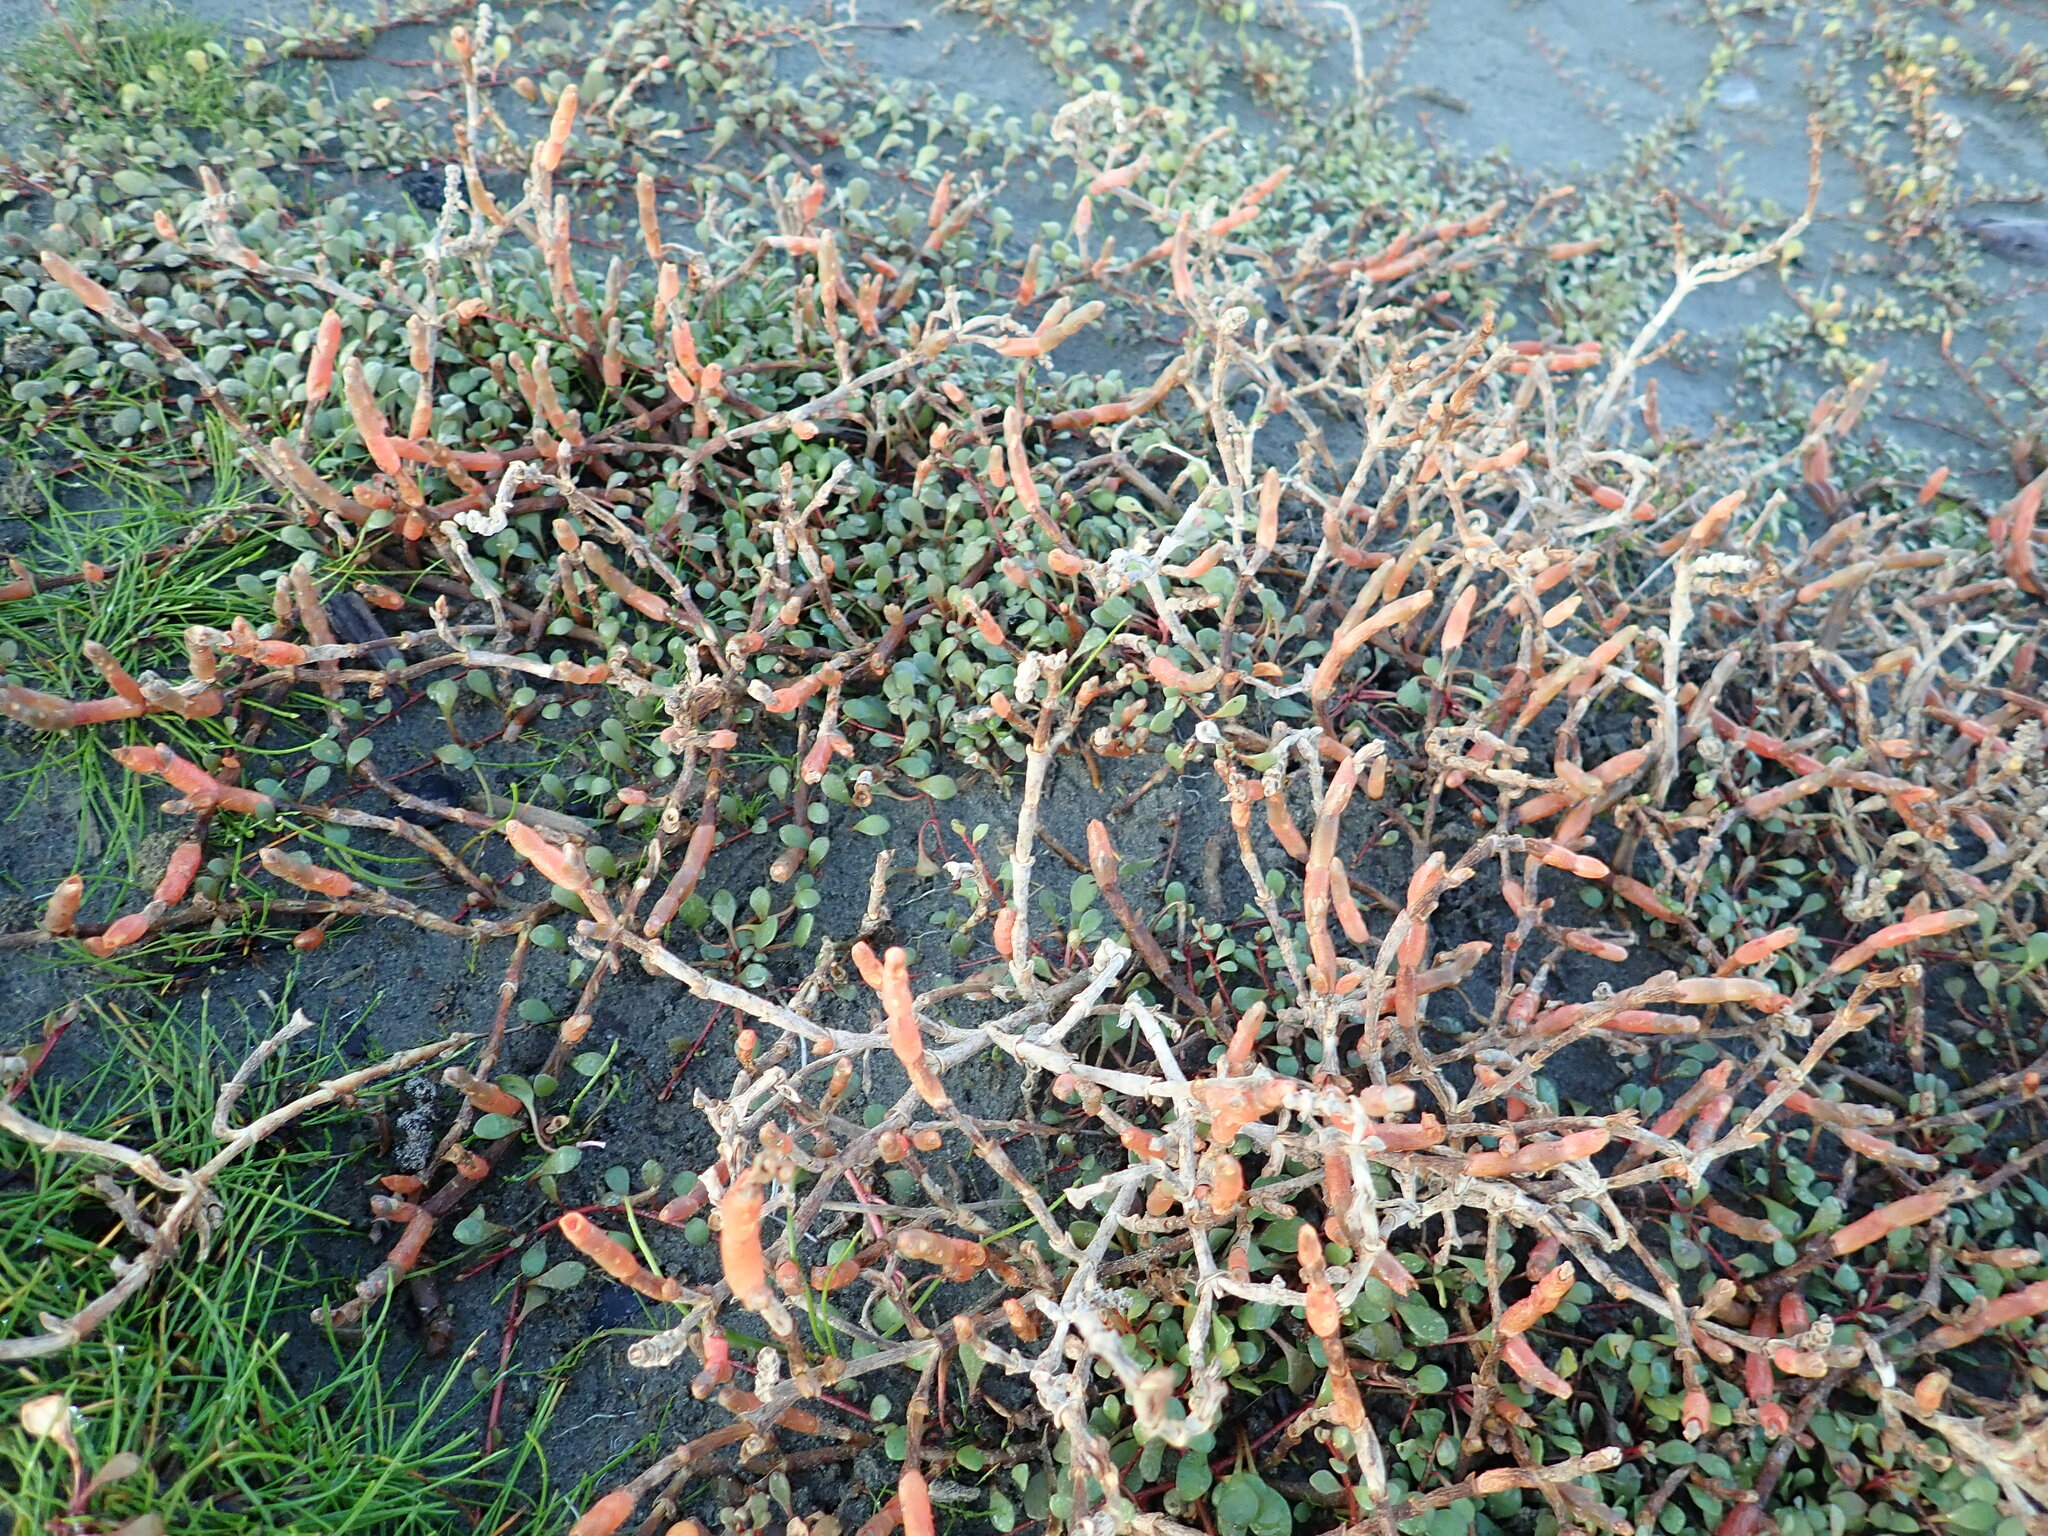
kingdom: Plantae
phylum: Tracheophyta
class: Magnoliopsida
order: Caryophyllales
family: Amaranthaceae
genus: Salicornia
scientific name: Salicornia quinqueflora
